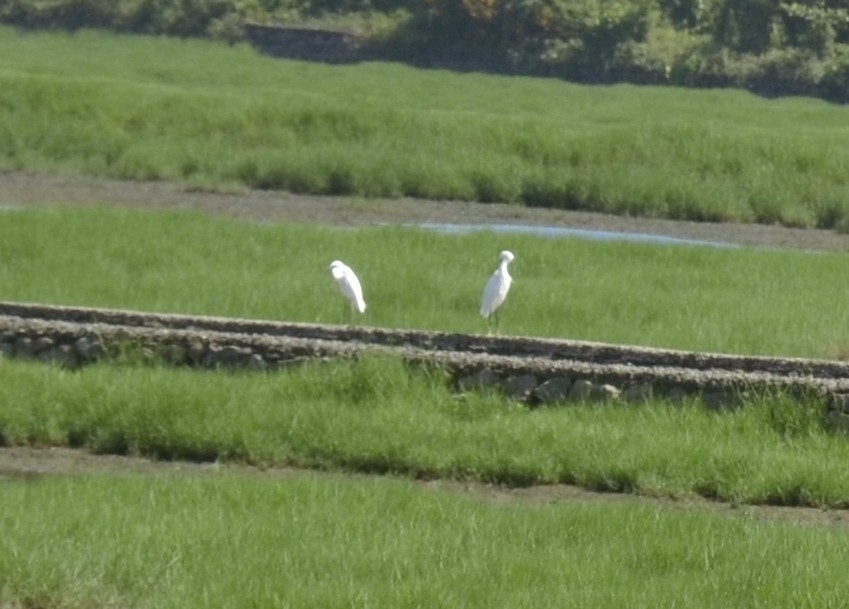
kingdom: Animalia
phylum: Chordata
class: Aves
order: Pelecaniformes
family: Ardeidae
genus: Egretta
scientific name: Egretta garzetta
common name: Little egret
